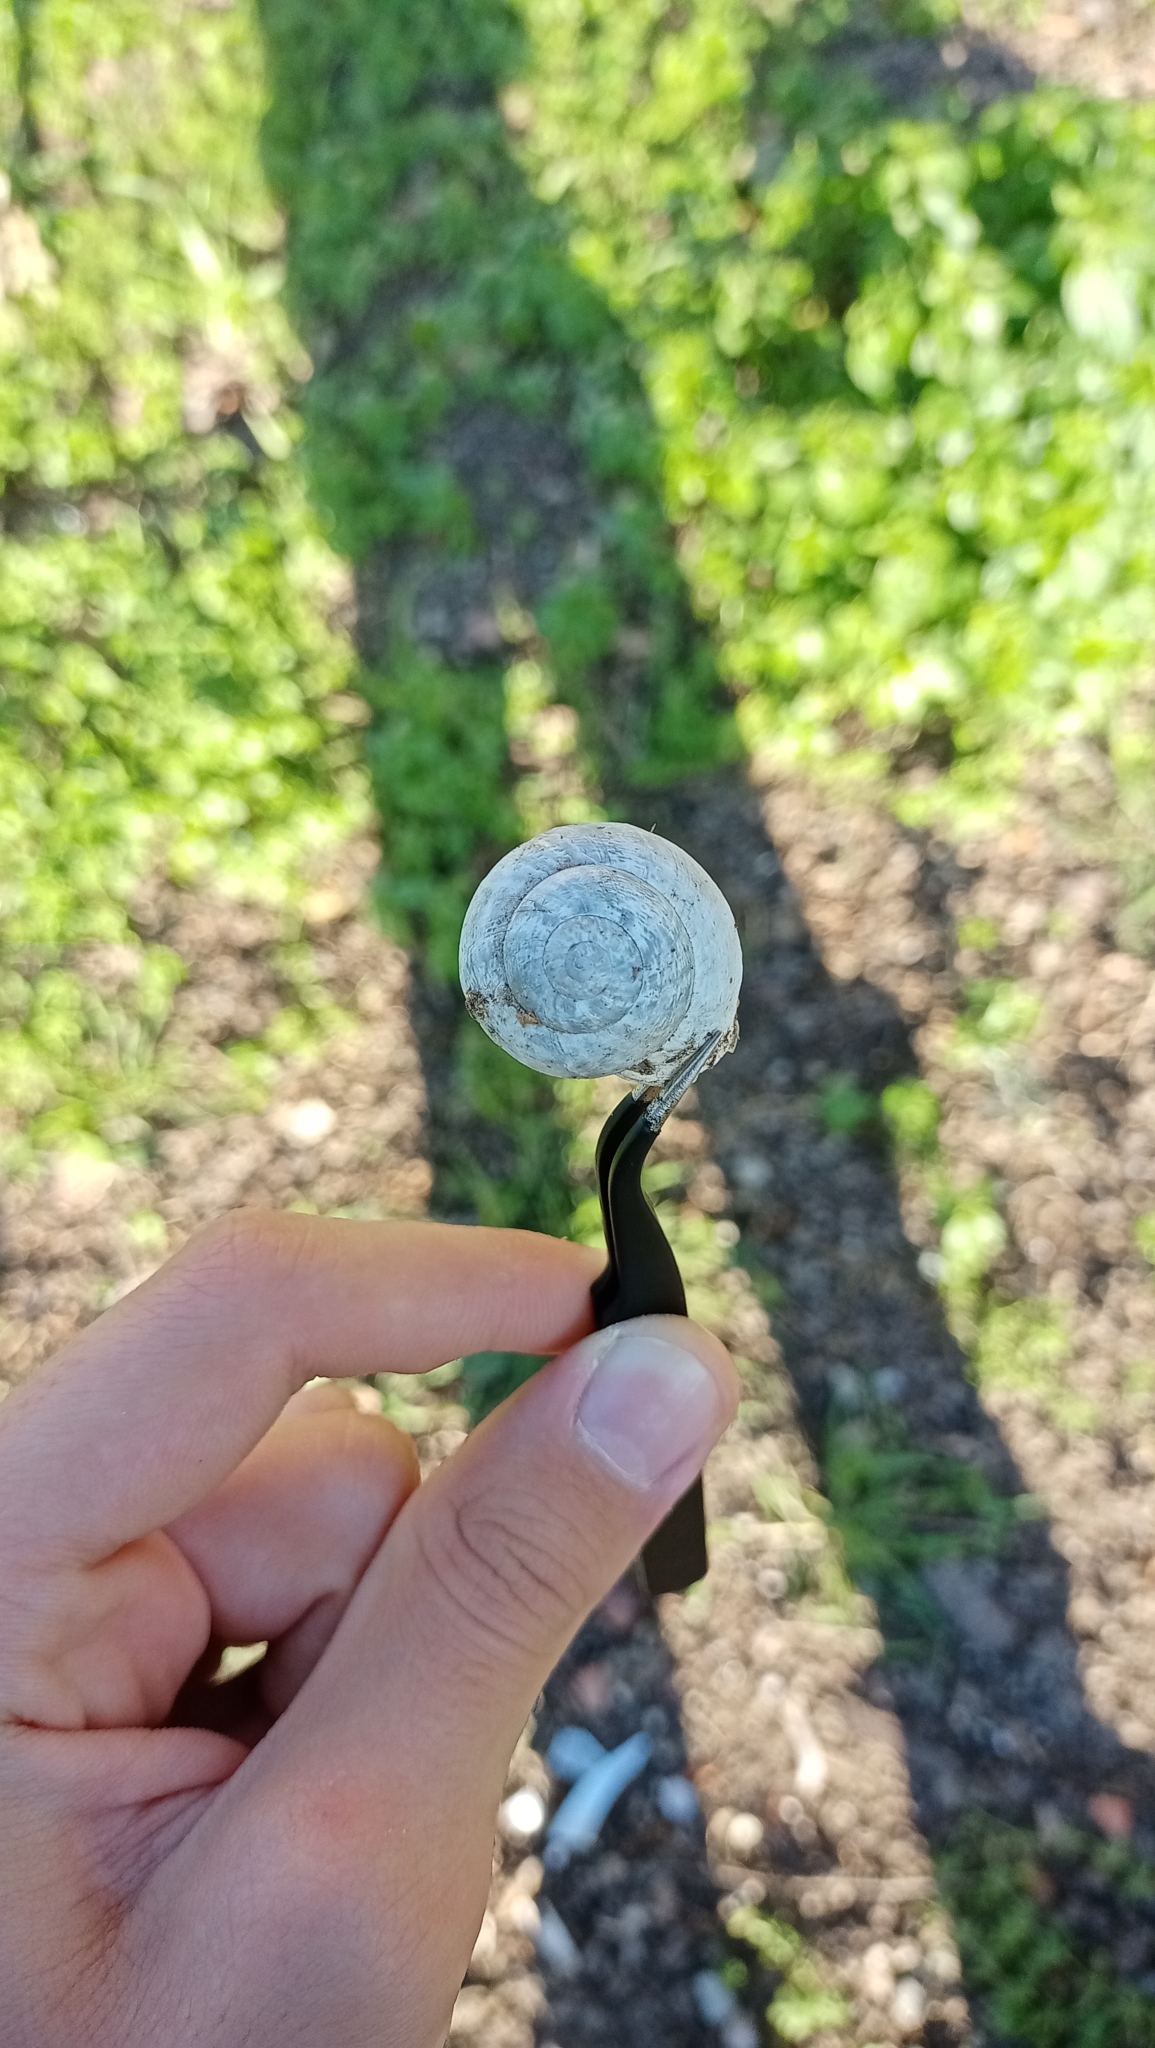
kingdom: Animalia
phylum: Mollusca
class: Gastropoda
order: Stylommatophora
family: Helicidae
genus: Eobania
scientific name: Eobania vermiculata
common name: Chocolateband snail
